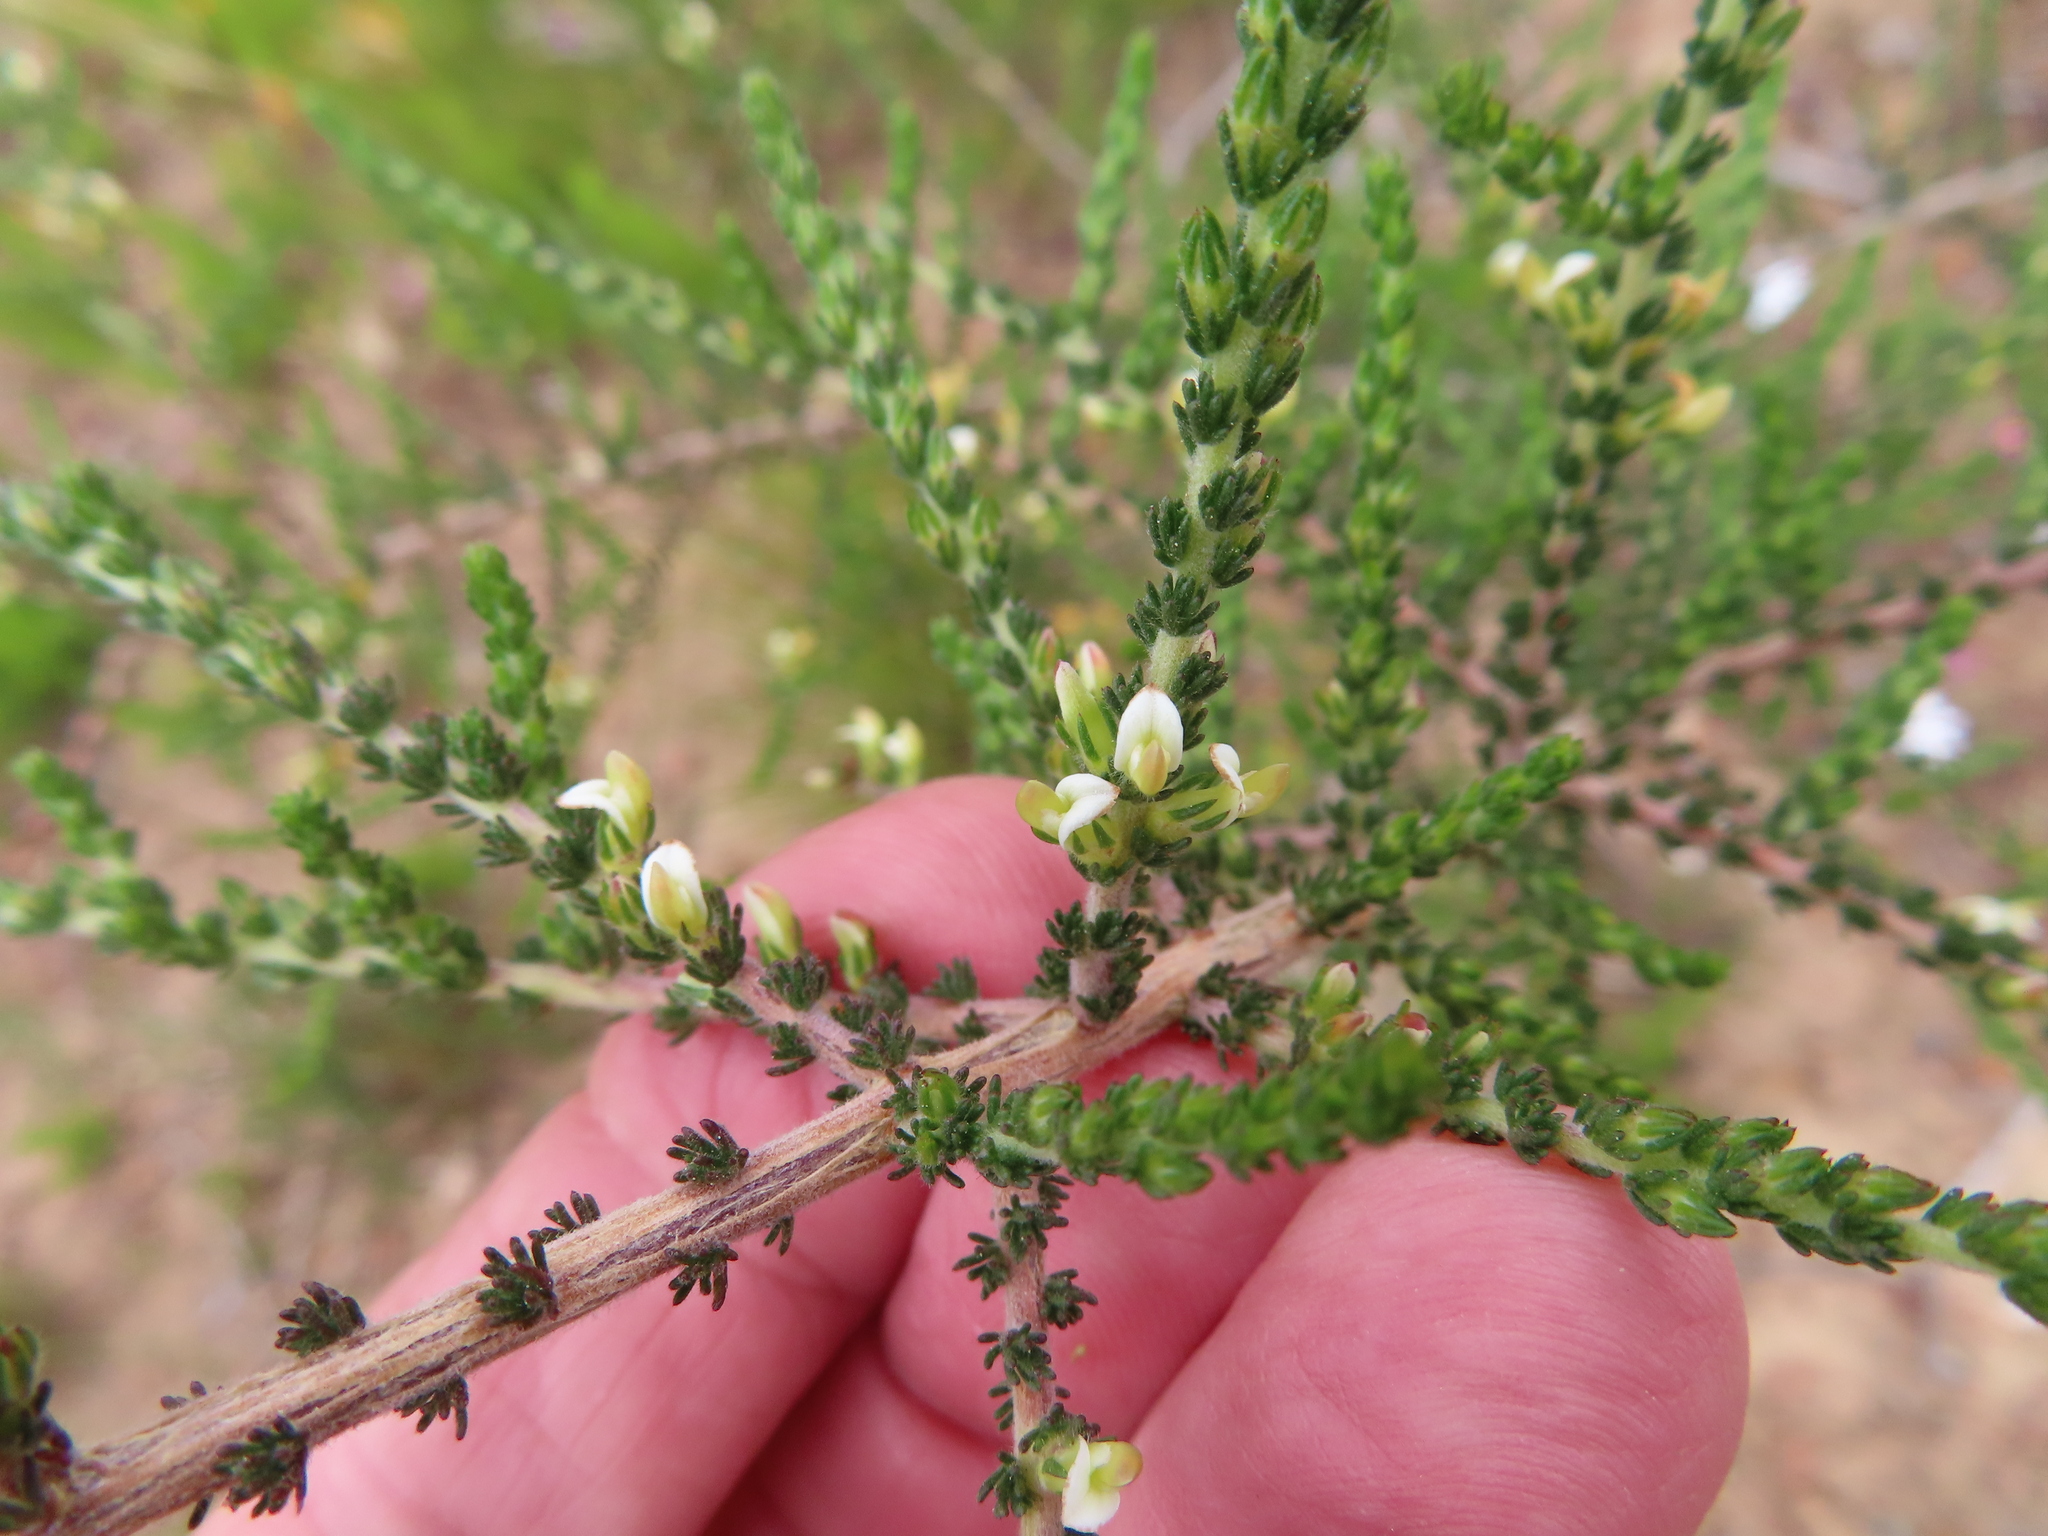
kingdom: Plantae
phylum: Tracheophyta
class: Magnoliopsida
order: Fabales
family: Fabaceae
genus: Aspalathus
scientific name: Aspalathus hispida
